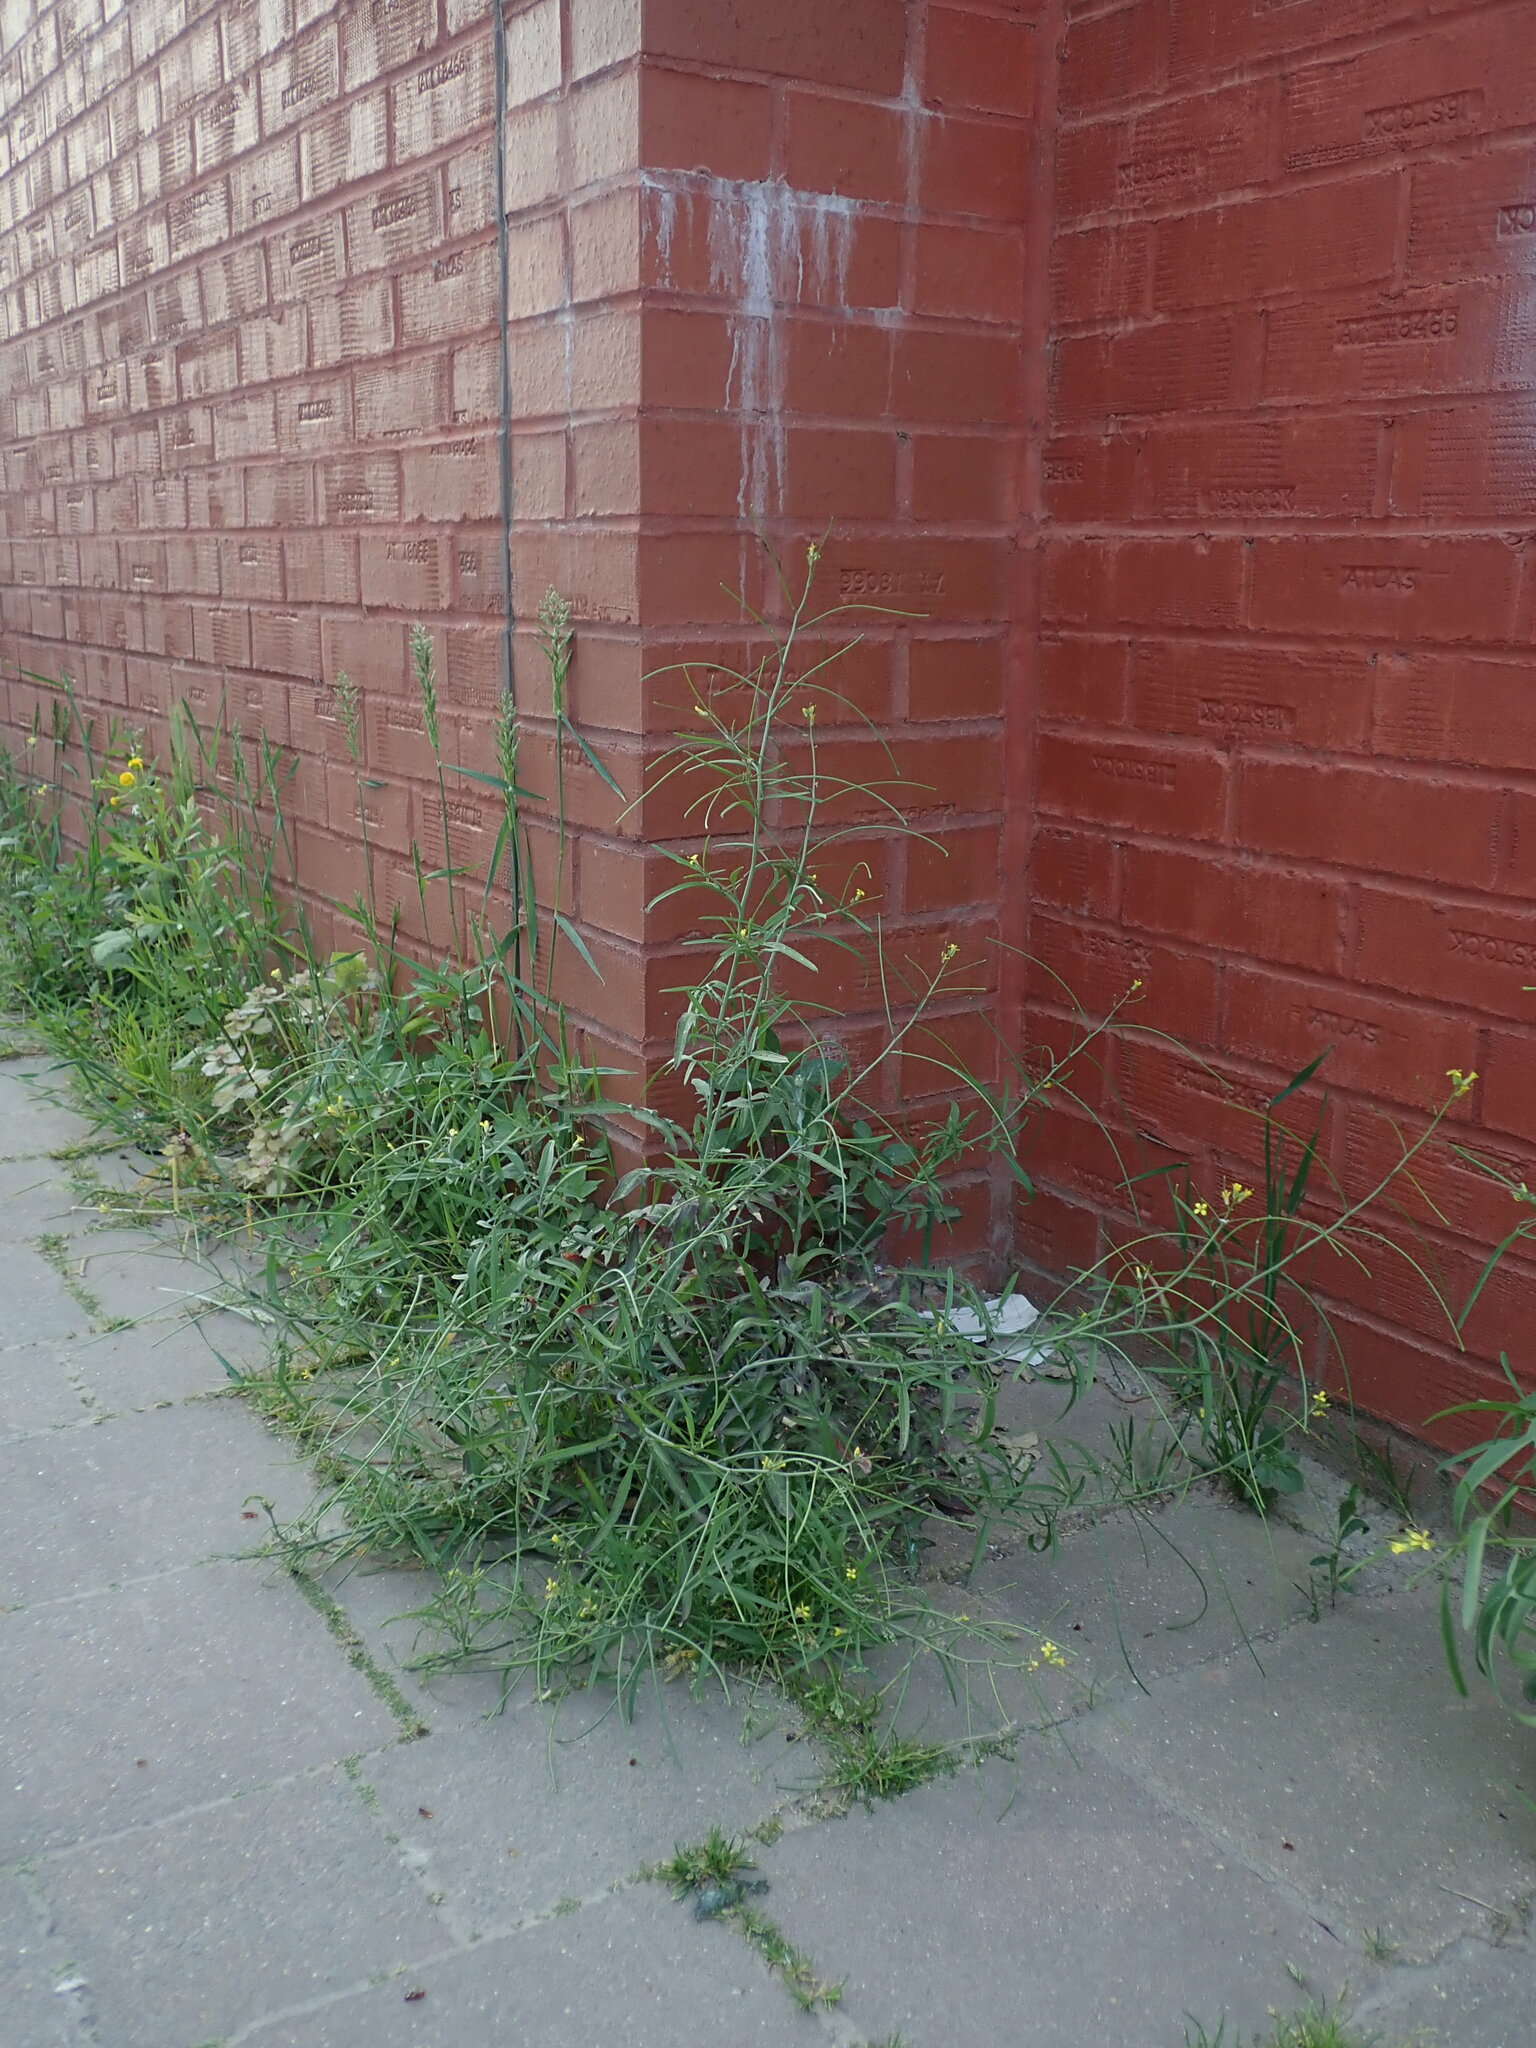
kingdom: Plantae
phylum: Tracheophyta
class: Magnoliopsida
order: Brassicales
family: Brassicaceae
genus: Sisymbrium
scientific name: Sisymbrium orientale
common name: Eastern rocket
